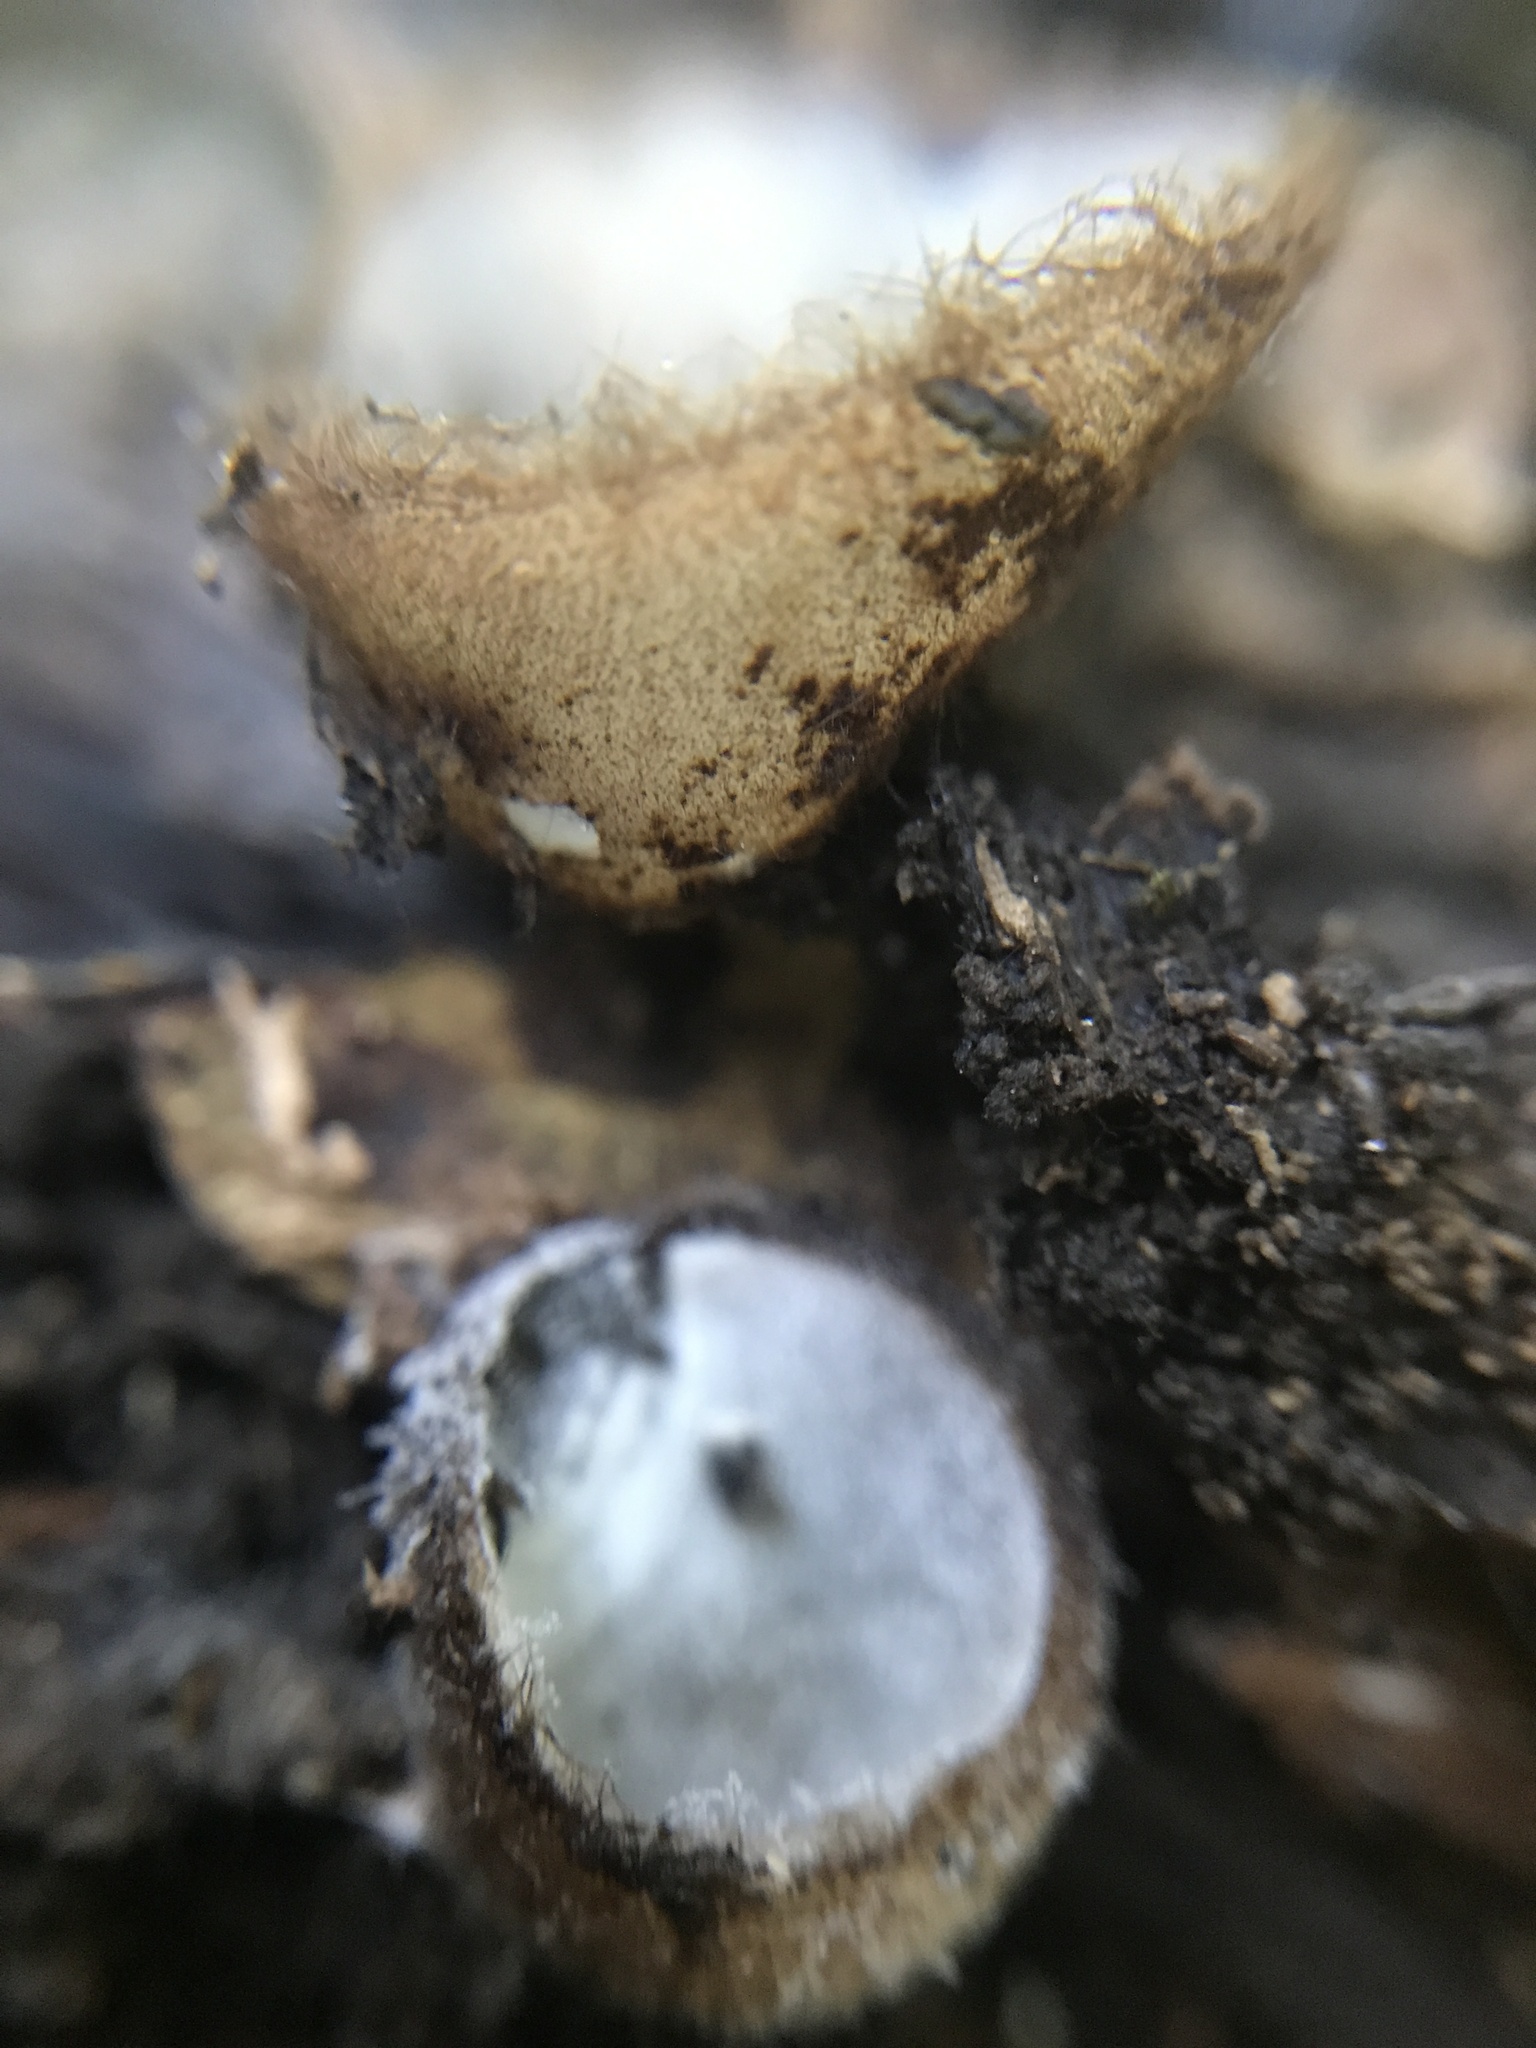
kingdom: Fungi
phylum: Ascomycota
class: Pezizomycetes
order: Pezizales
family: Pyronemataceae
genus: Humaria
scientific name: Humaria hemisphaerica
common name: Glazed cup
